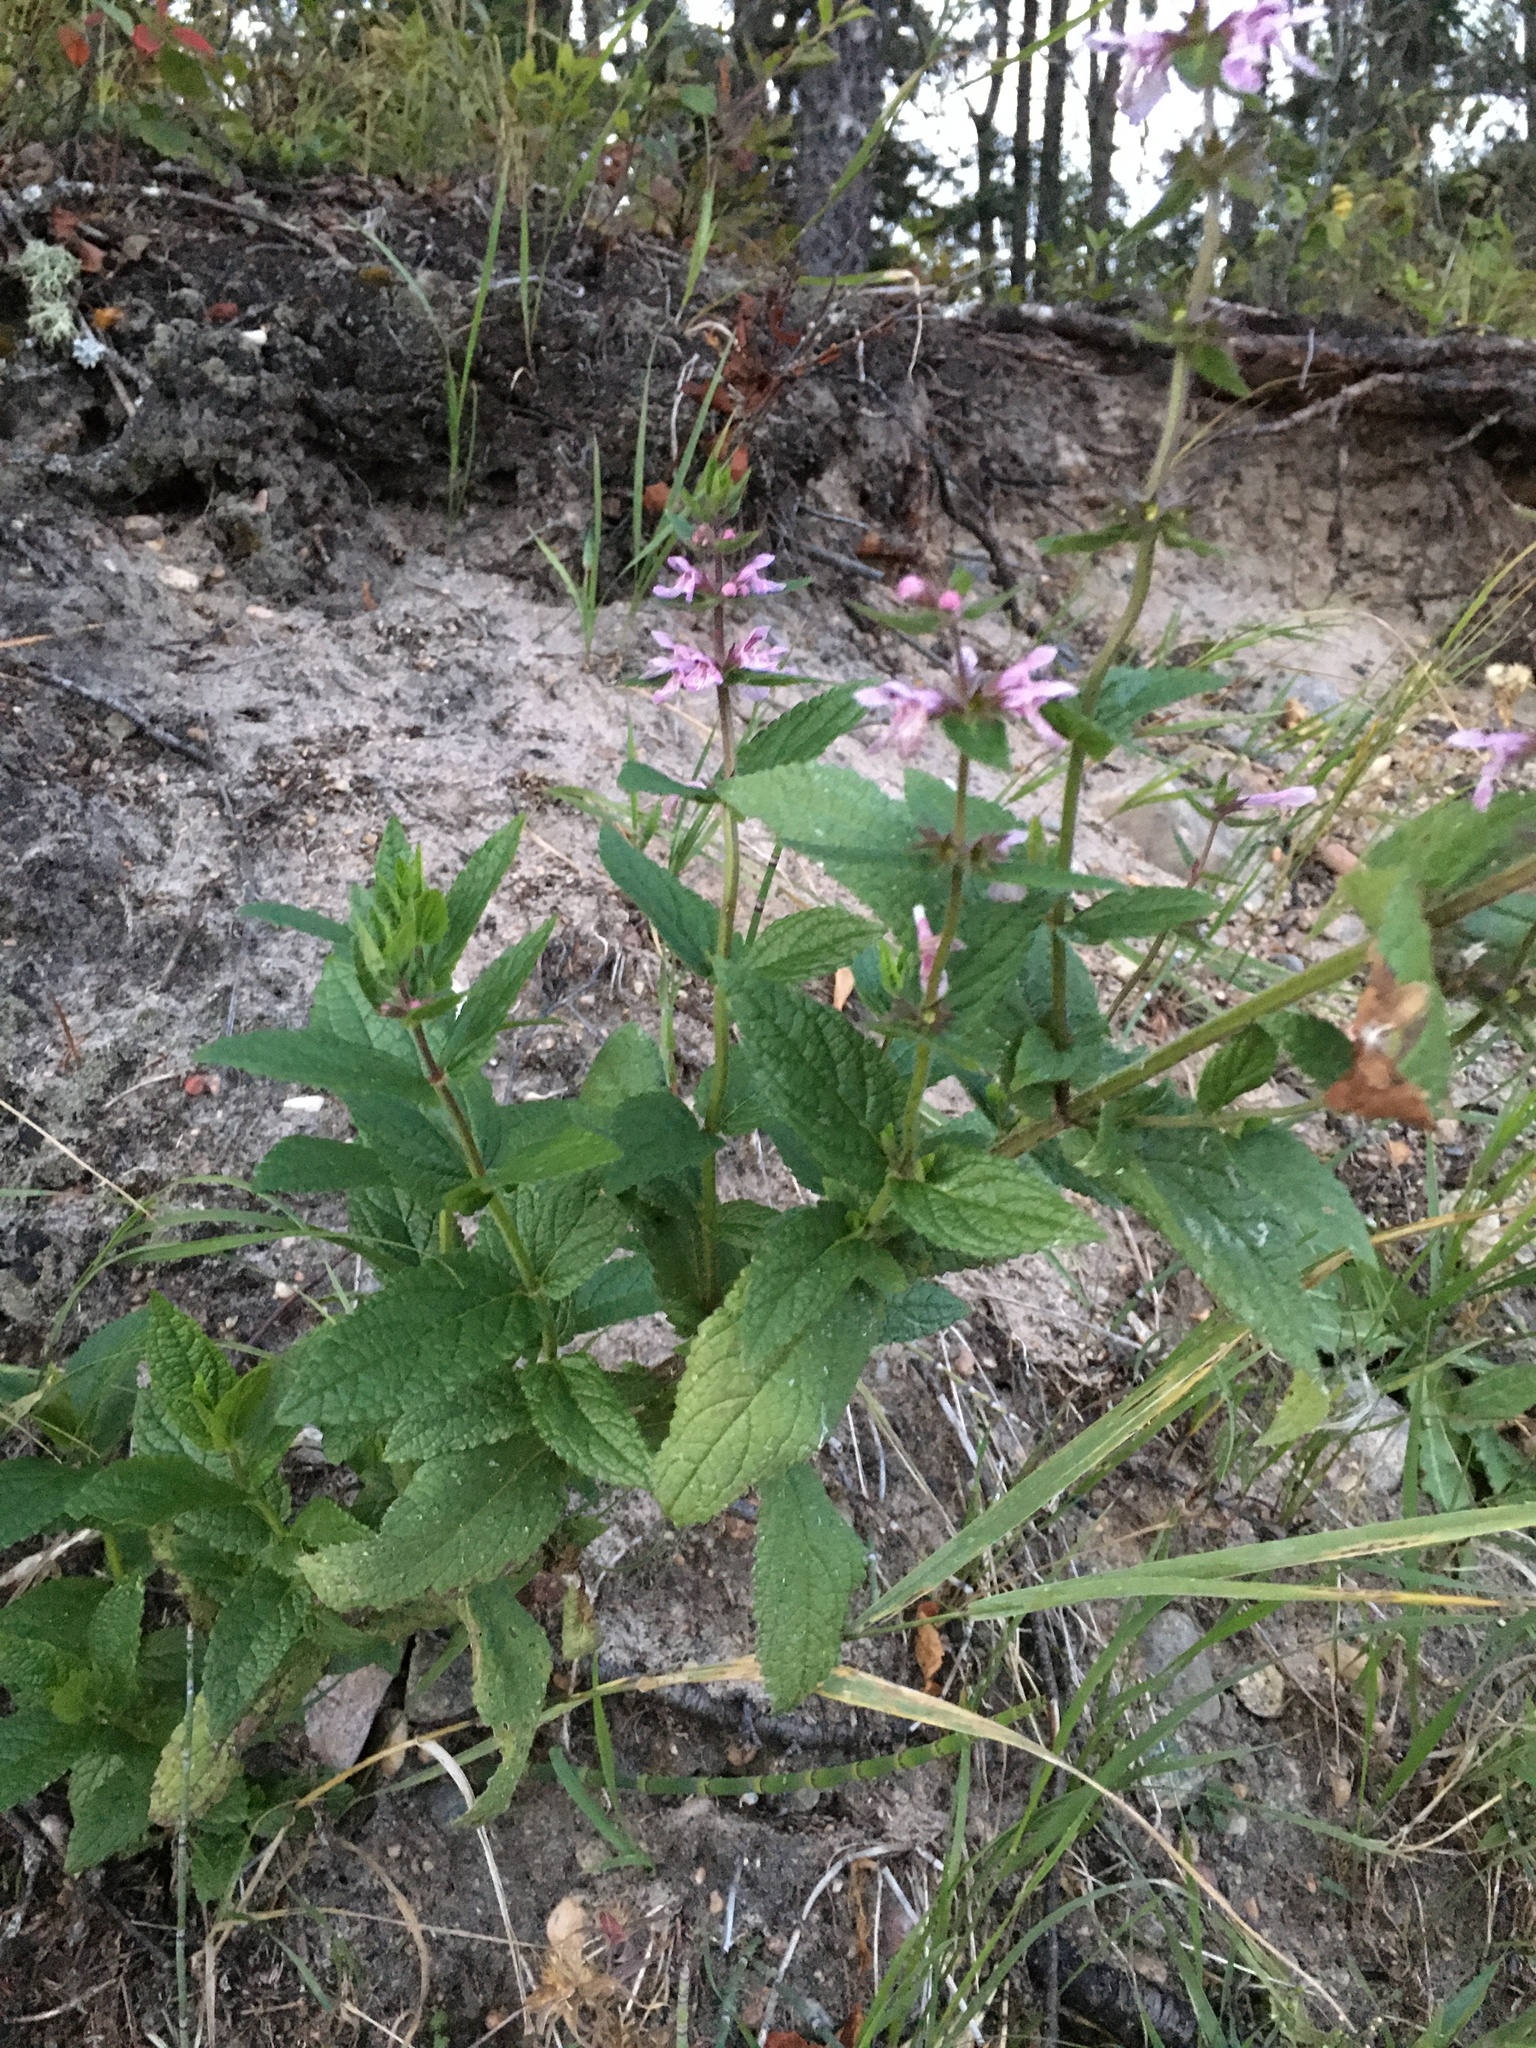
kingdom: Plantae
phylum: Tracheophyta
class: Magnoliopsida
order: Lamiales
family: Lamiaceae
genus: Stachys
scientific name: Stachys pilosa
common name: Hairy hedge-nettle
